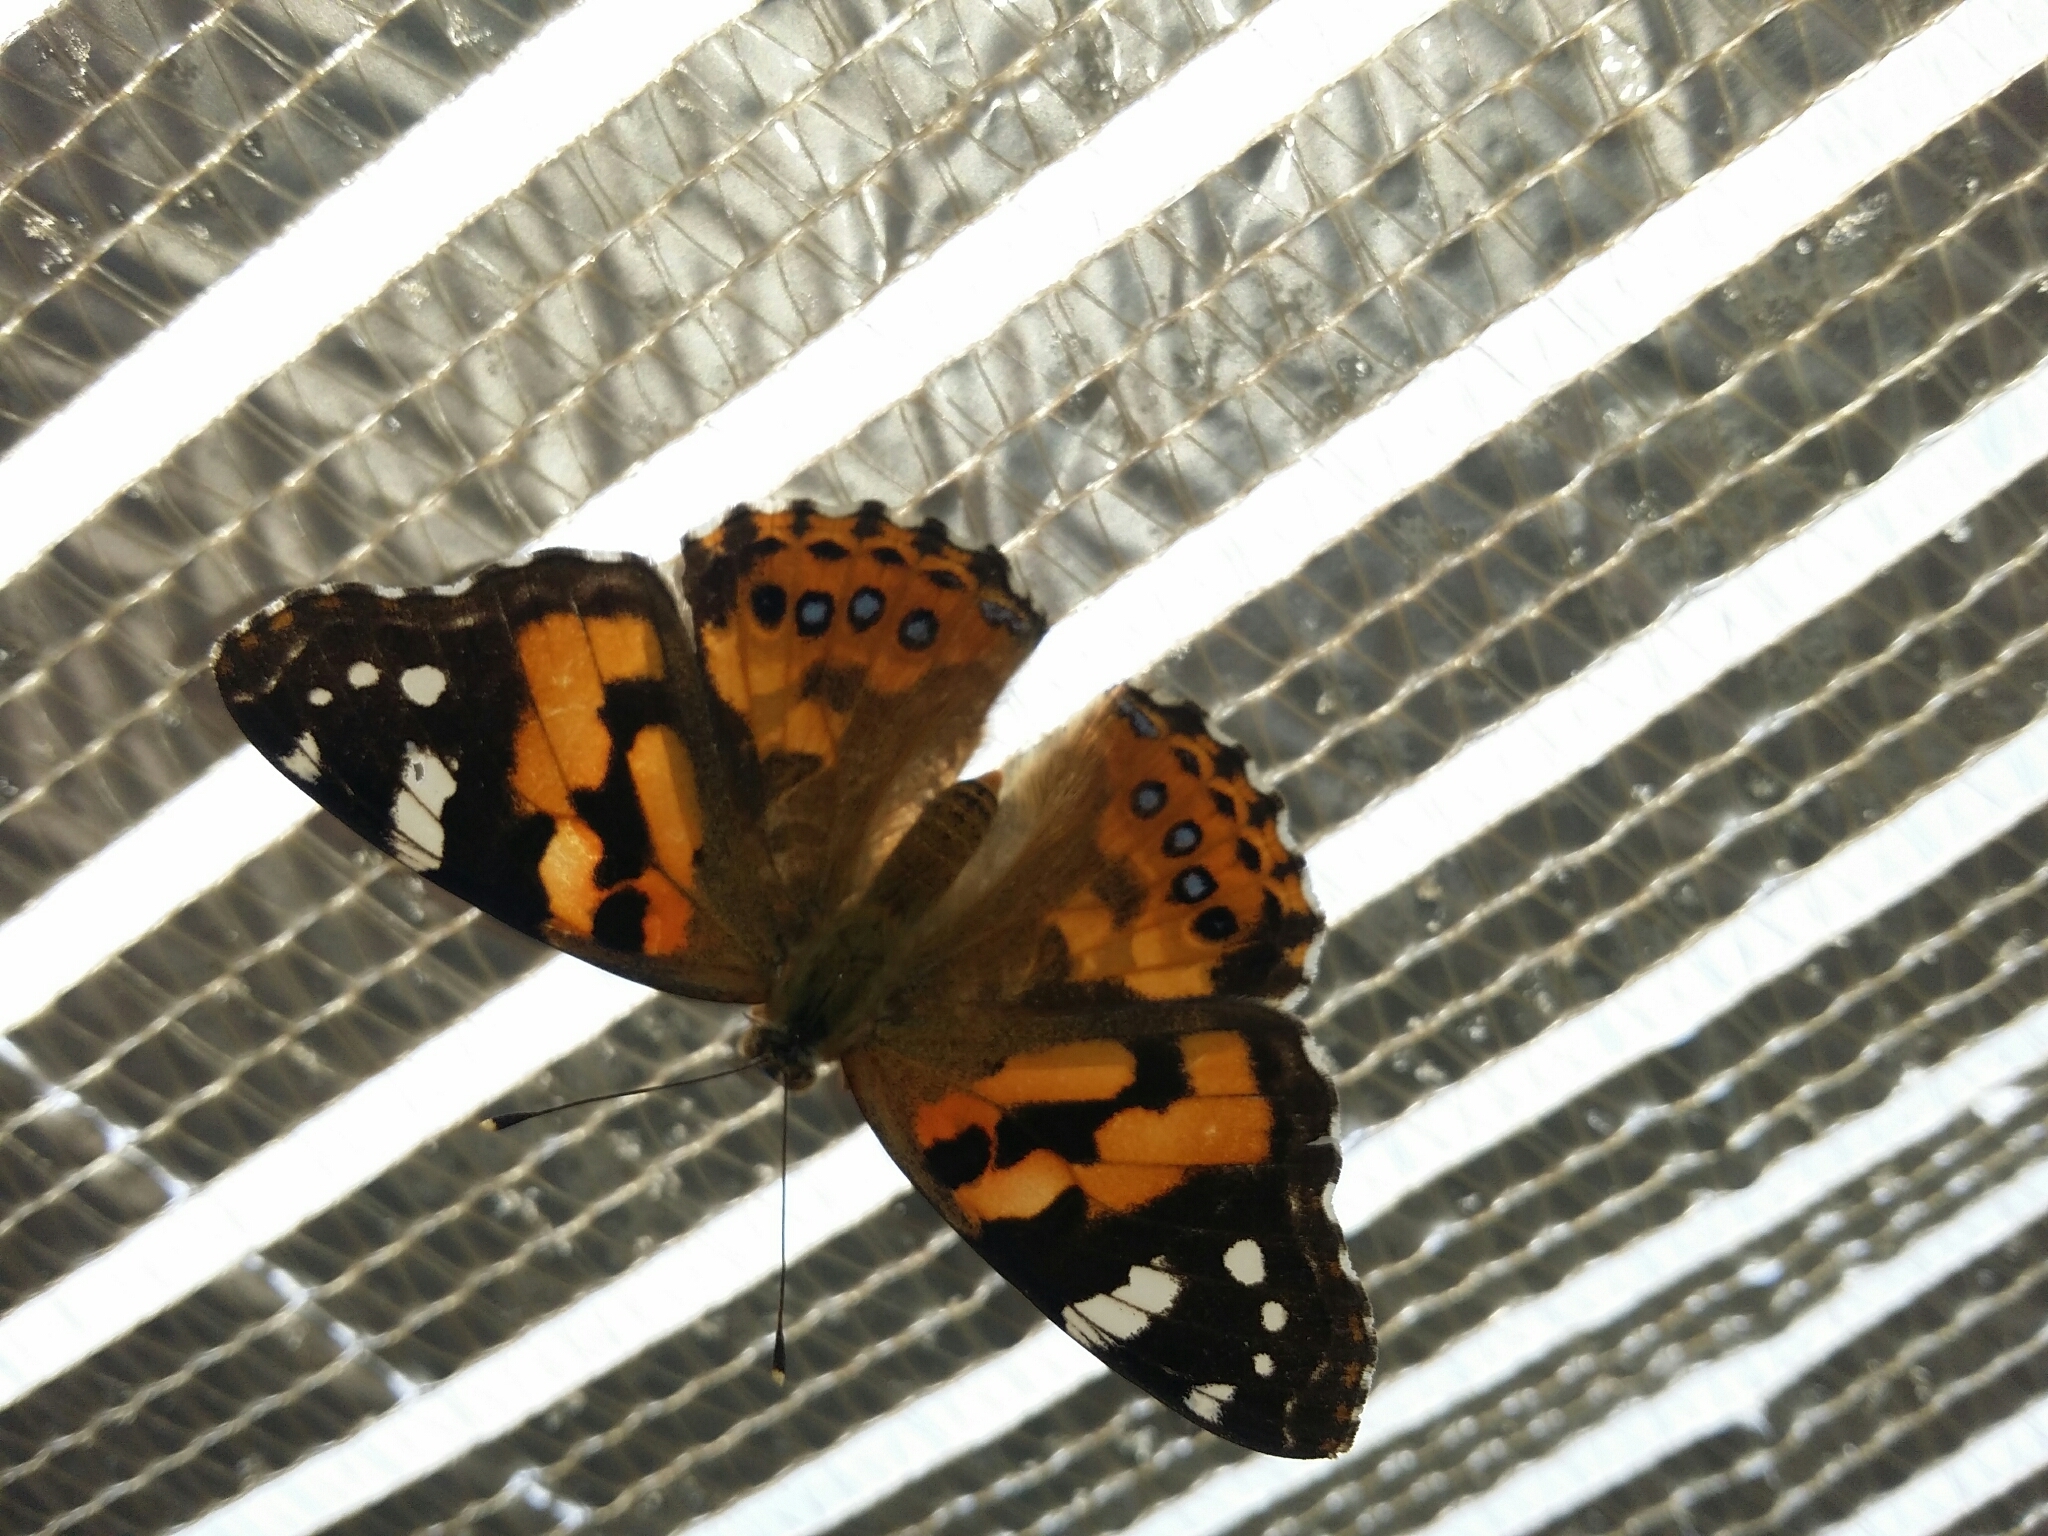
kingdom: Animalia
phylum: Arthropoda
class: Insecta
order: Lepidoptera
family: Nymphalidae
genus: Vanessa
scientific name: Vanessa kershawi
